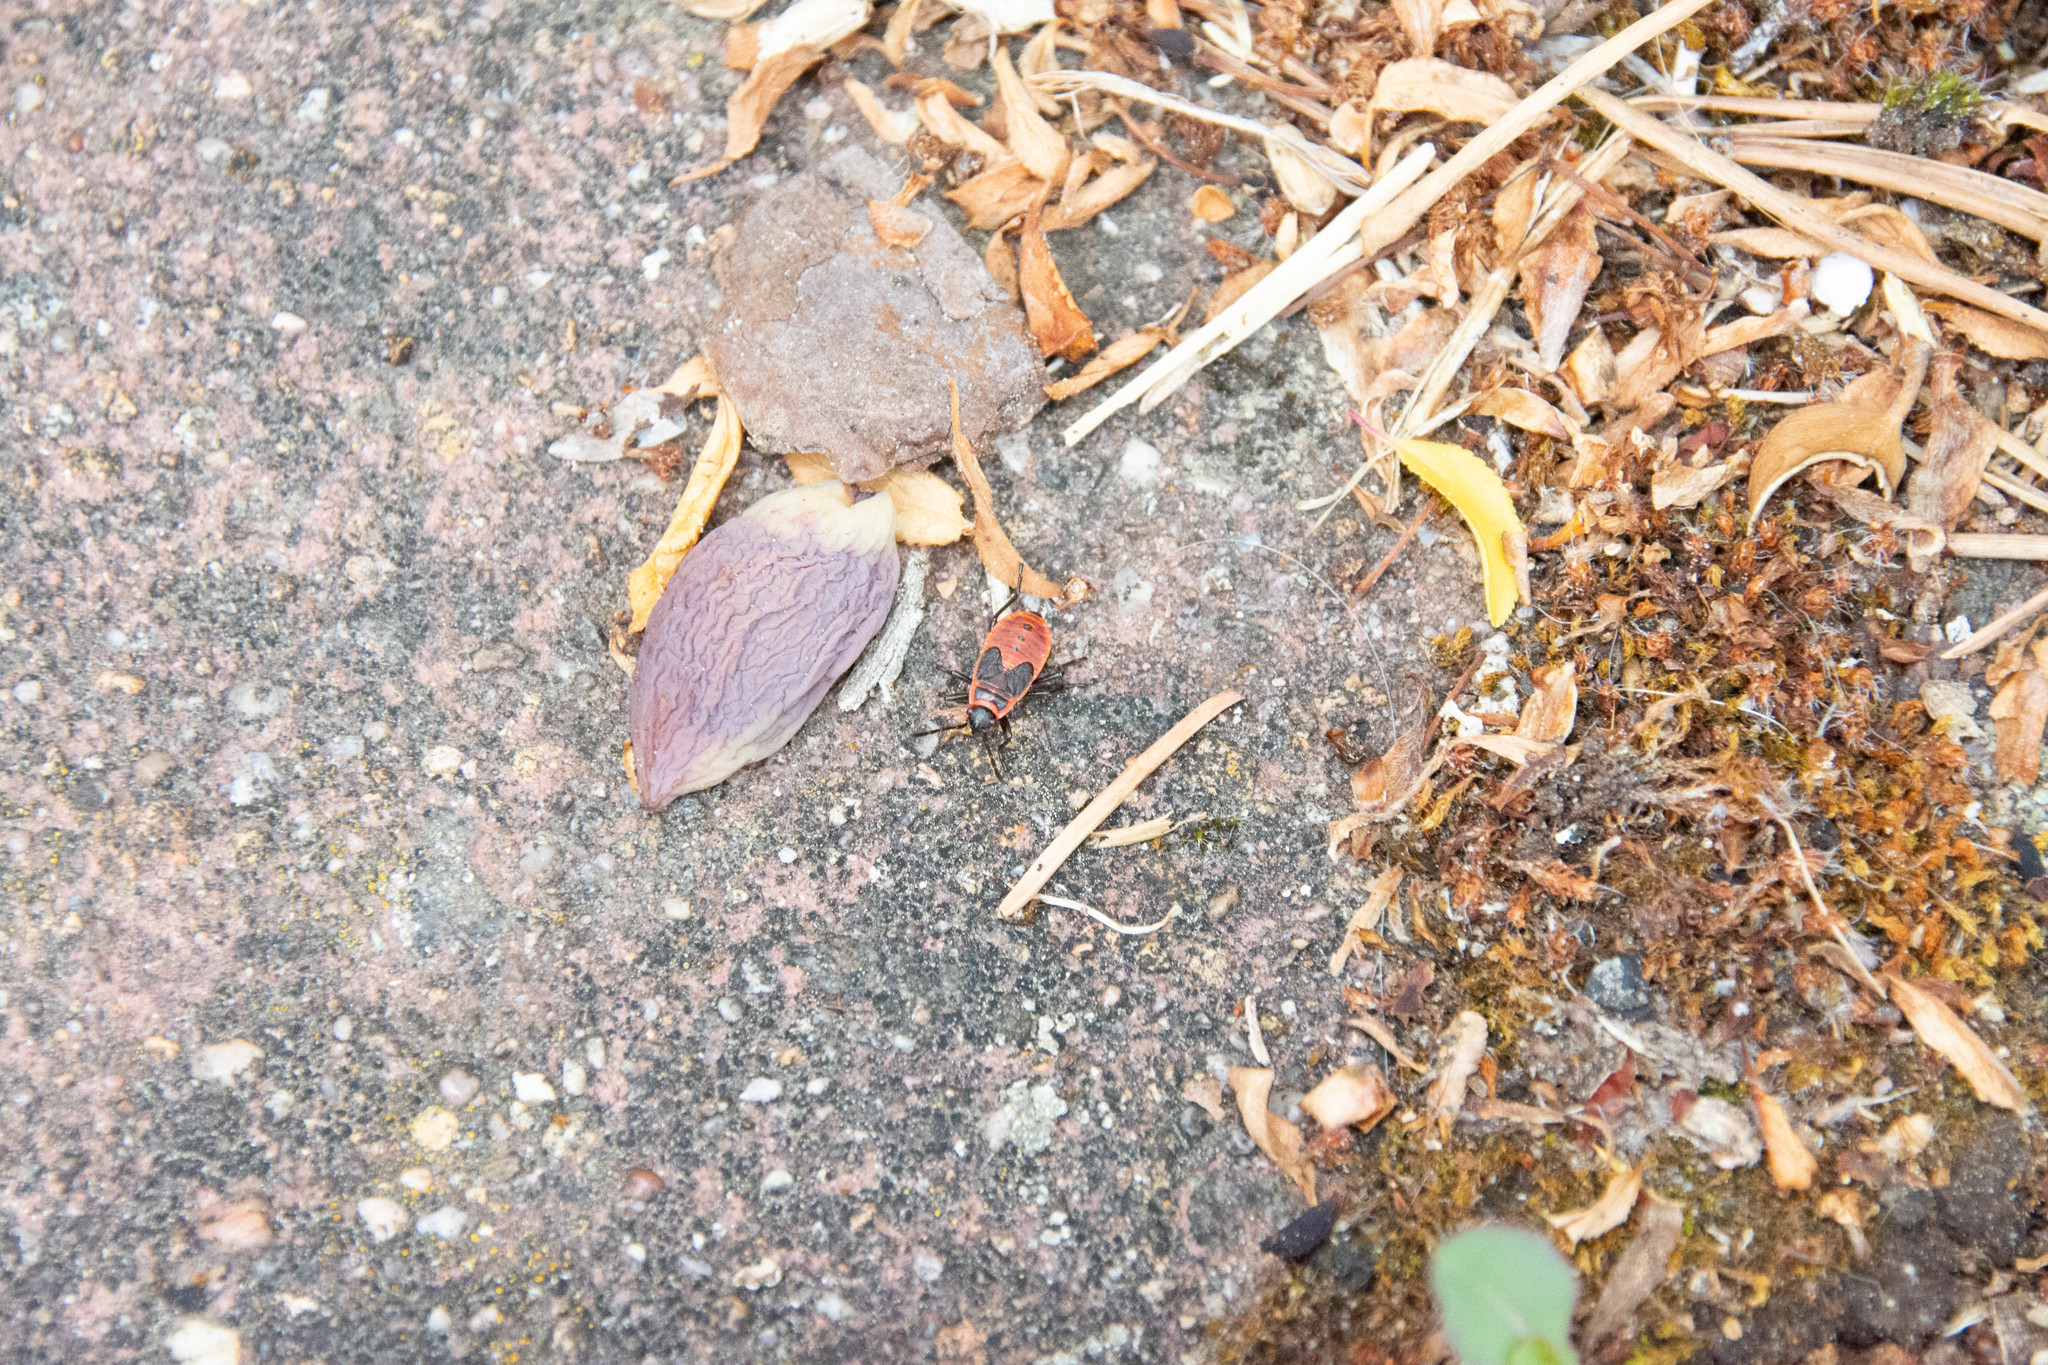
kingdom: Animalia
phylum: Arthropoda
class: Insecta
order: Hemiptera
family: Pyrrhocoridae
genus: Pyrrhocoris
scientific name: Pyrrhocoris apterus
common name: Firebug
